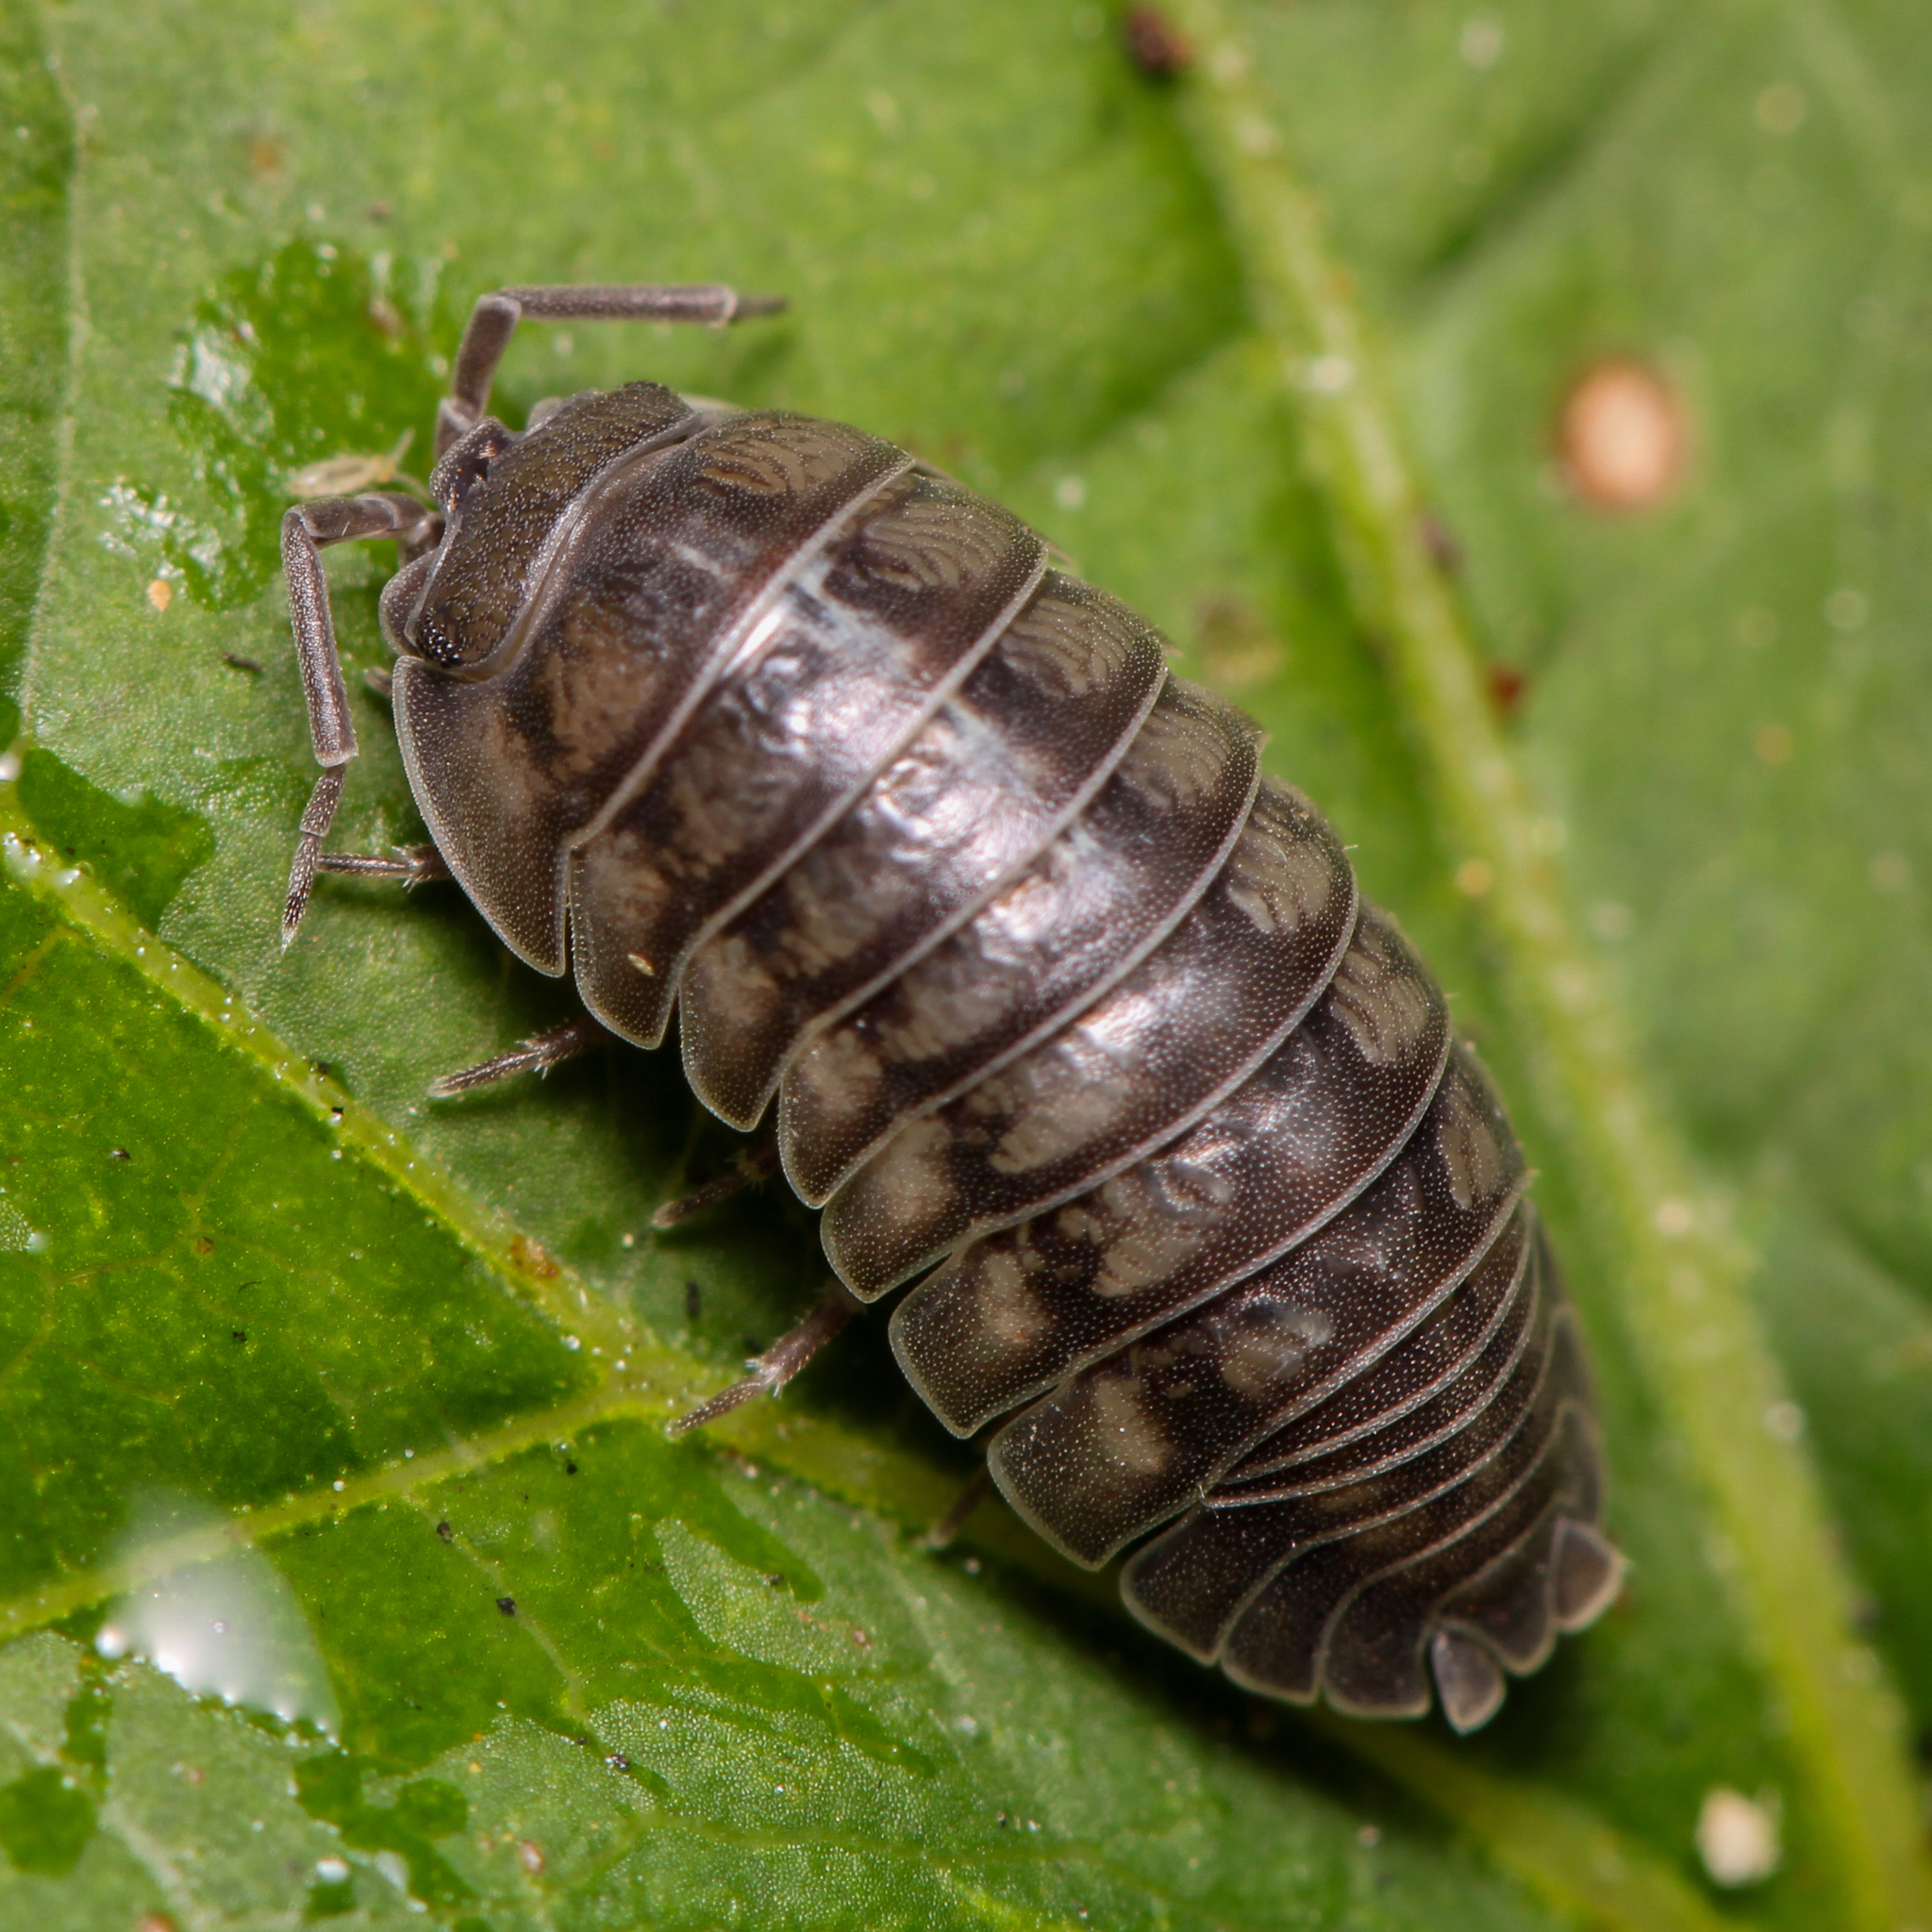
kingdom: Animalia
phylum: Arthropoda
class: Malacostraca
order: Isopoda
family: Armadillidiidae
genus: Armadillidium
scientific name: Armadillidium nasatum
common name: Isopod
